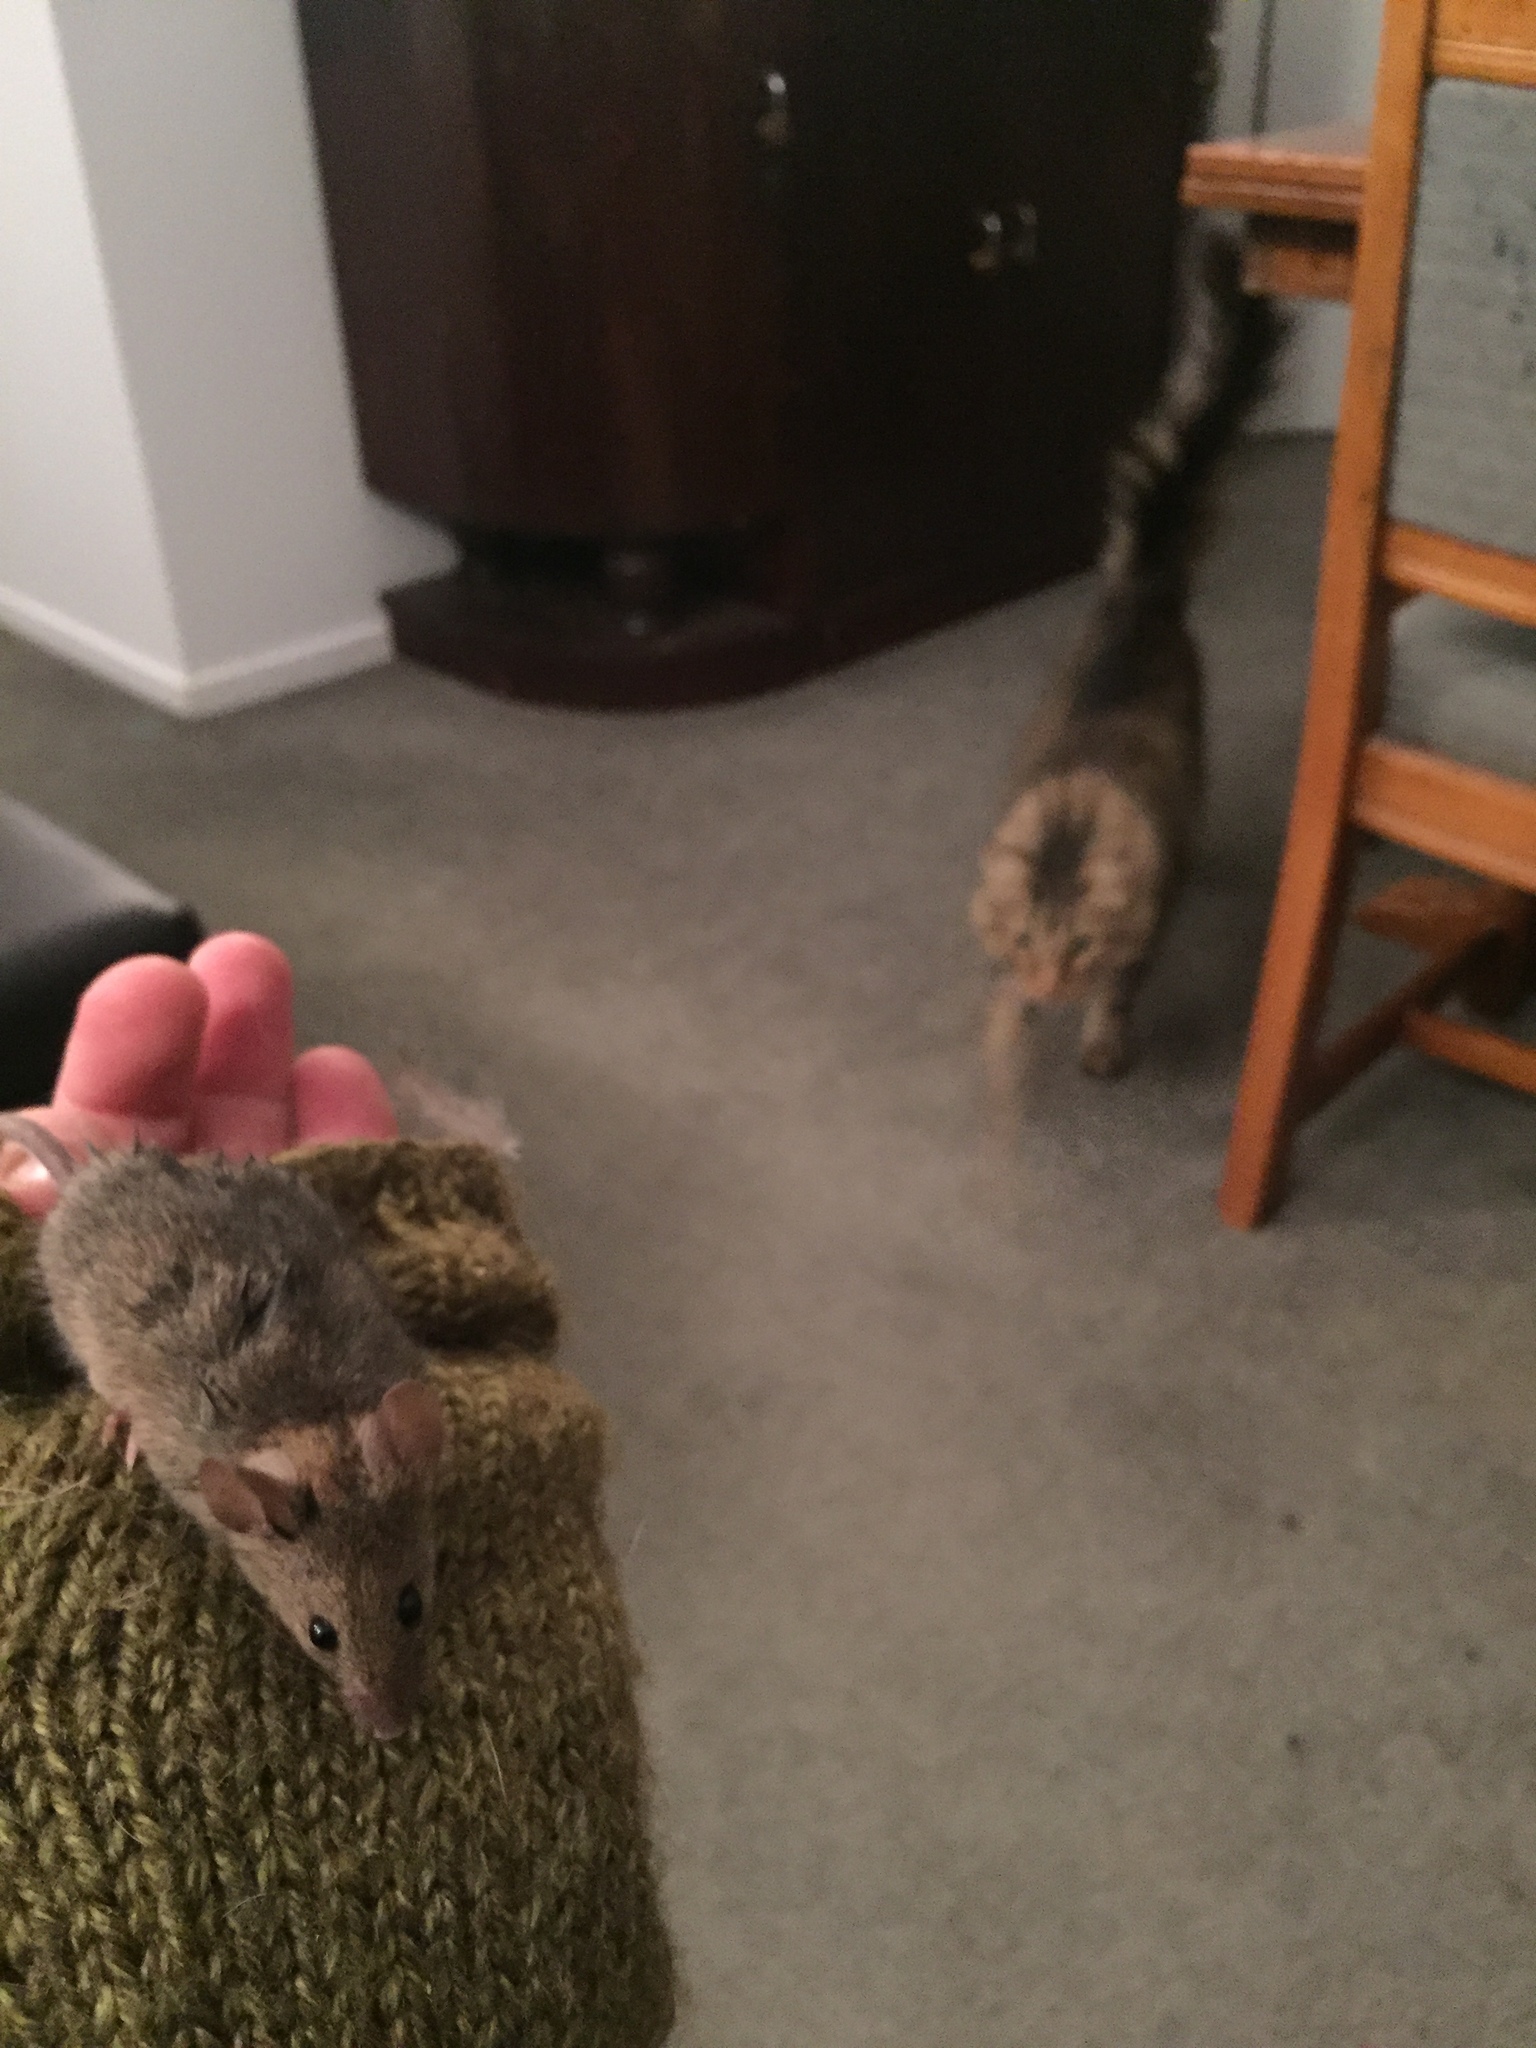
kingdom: Animalia
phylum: Chordata
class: Mammalia
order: Rodentia
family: Muridae
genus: Mus
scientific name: Mus musculus
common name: House mouse
